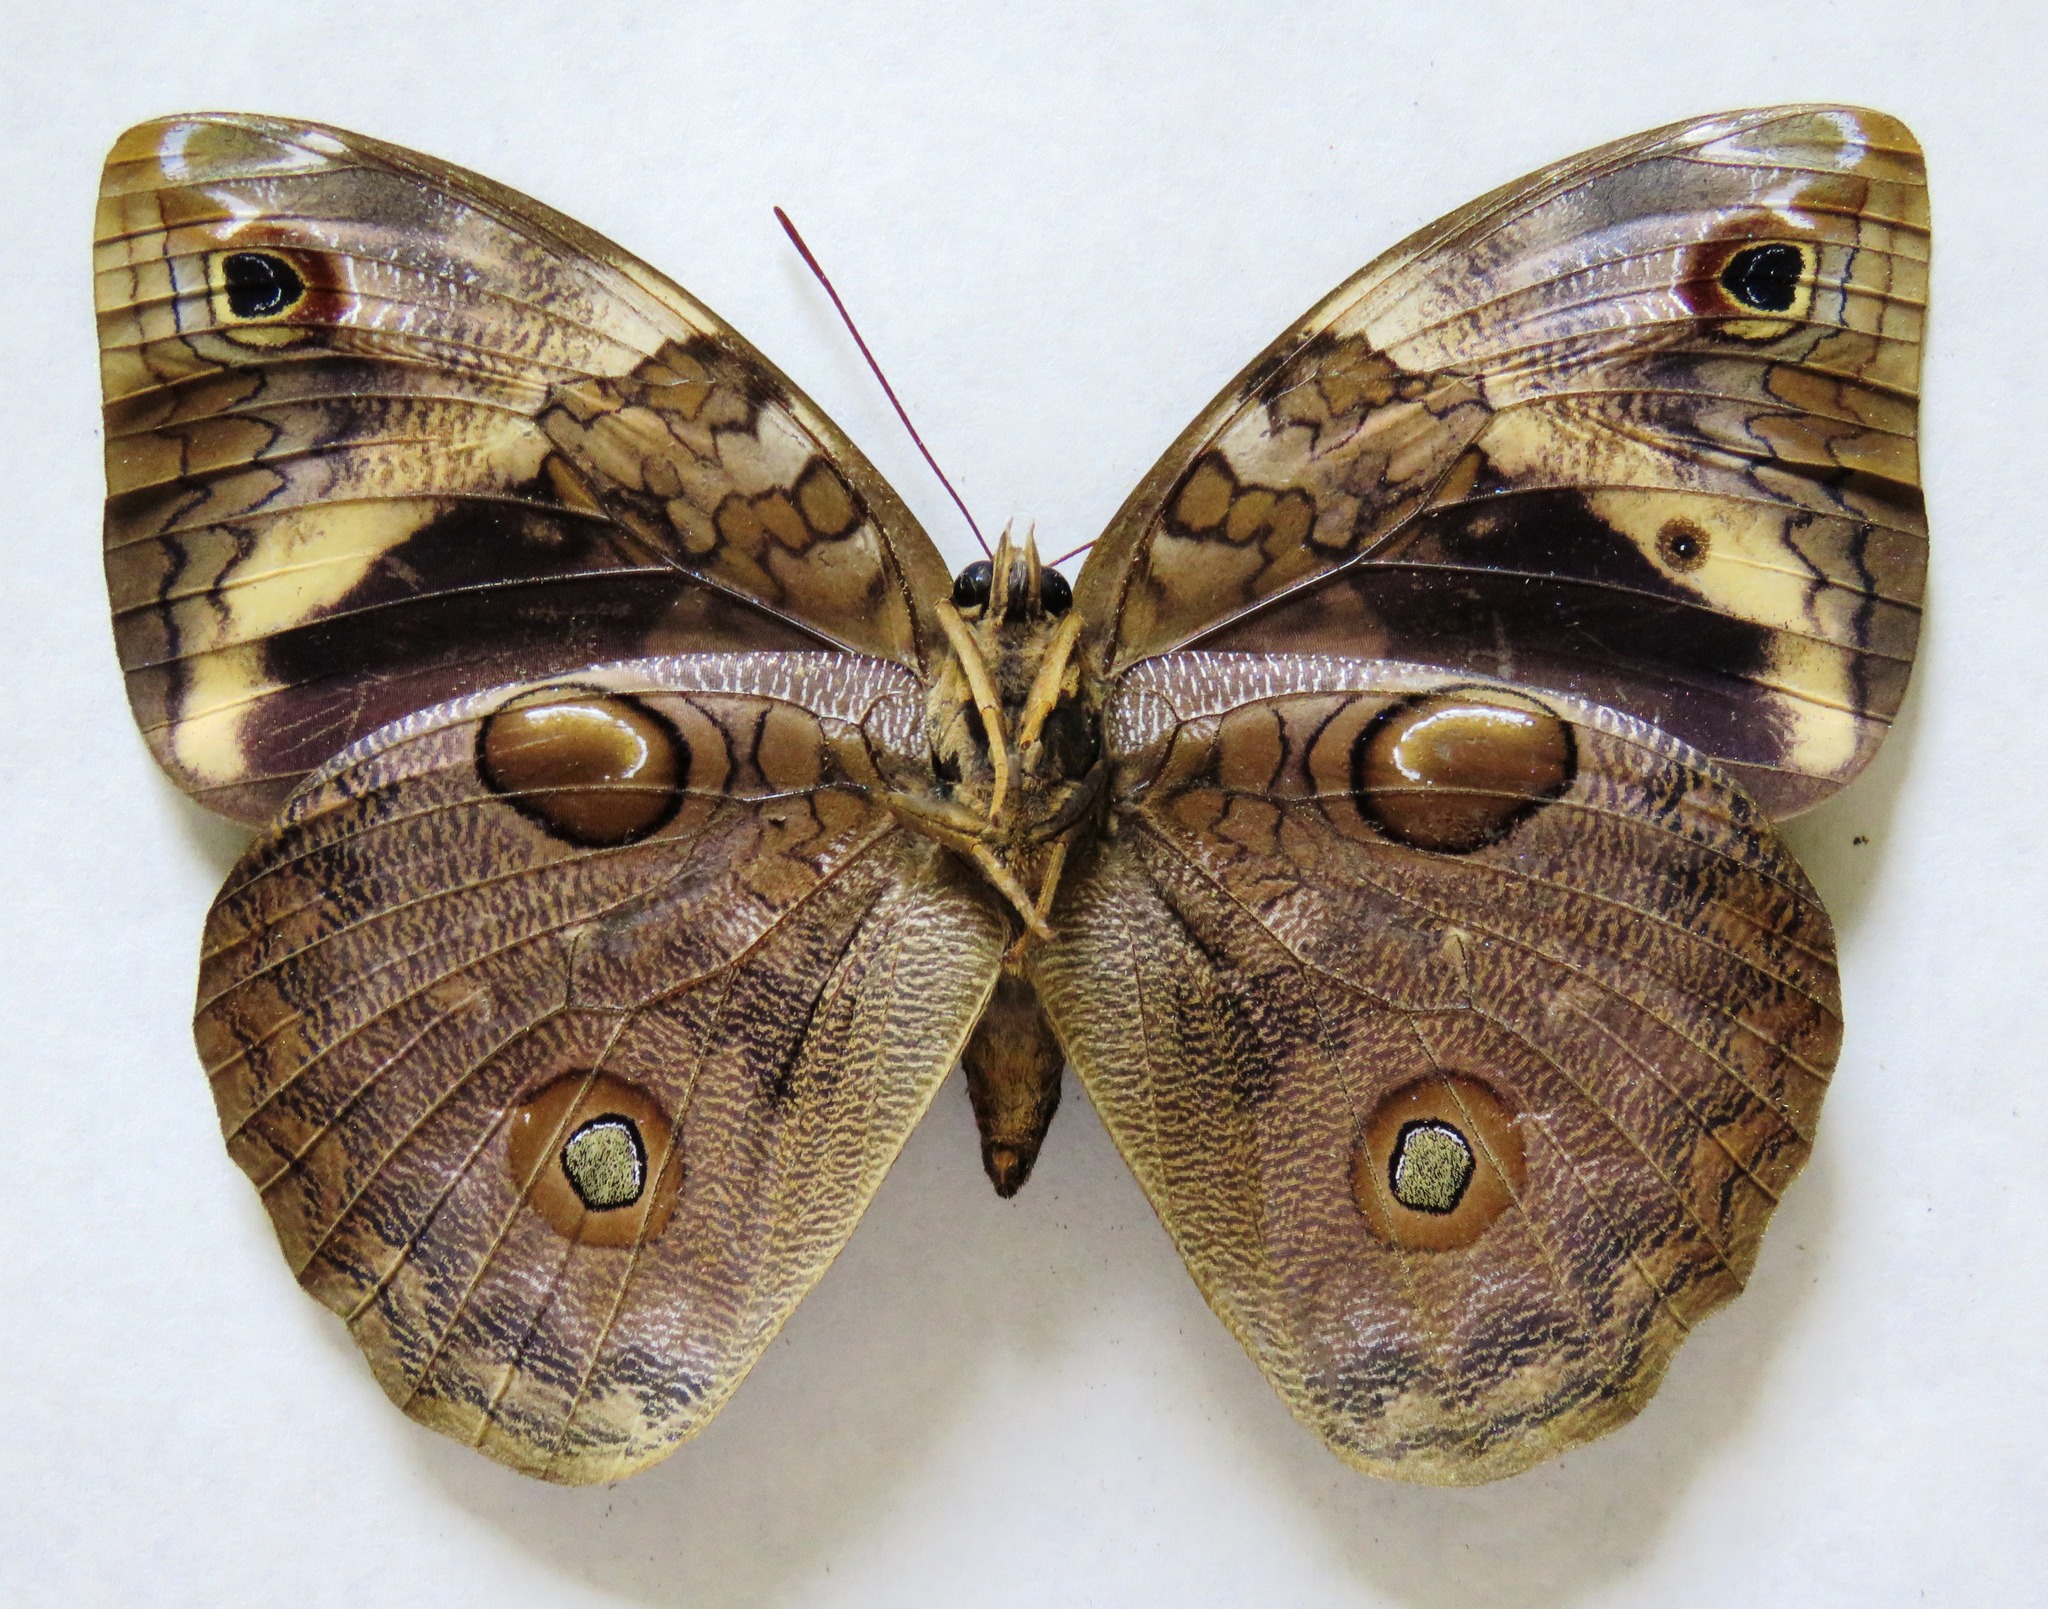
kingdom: Animalia
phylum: Arthropoda
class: Insecta
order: Lepidoptera
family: Nymphalidae
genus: Opsiphanes
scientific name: Opsiphanes cassiae
